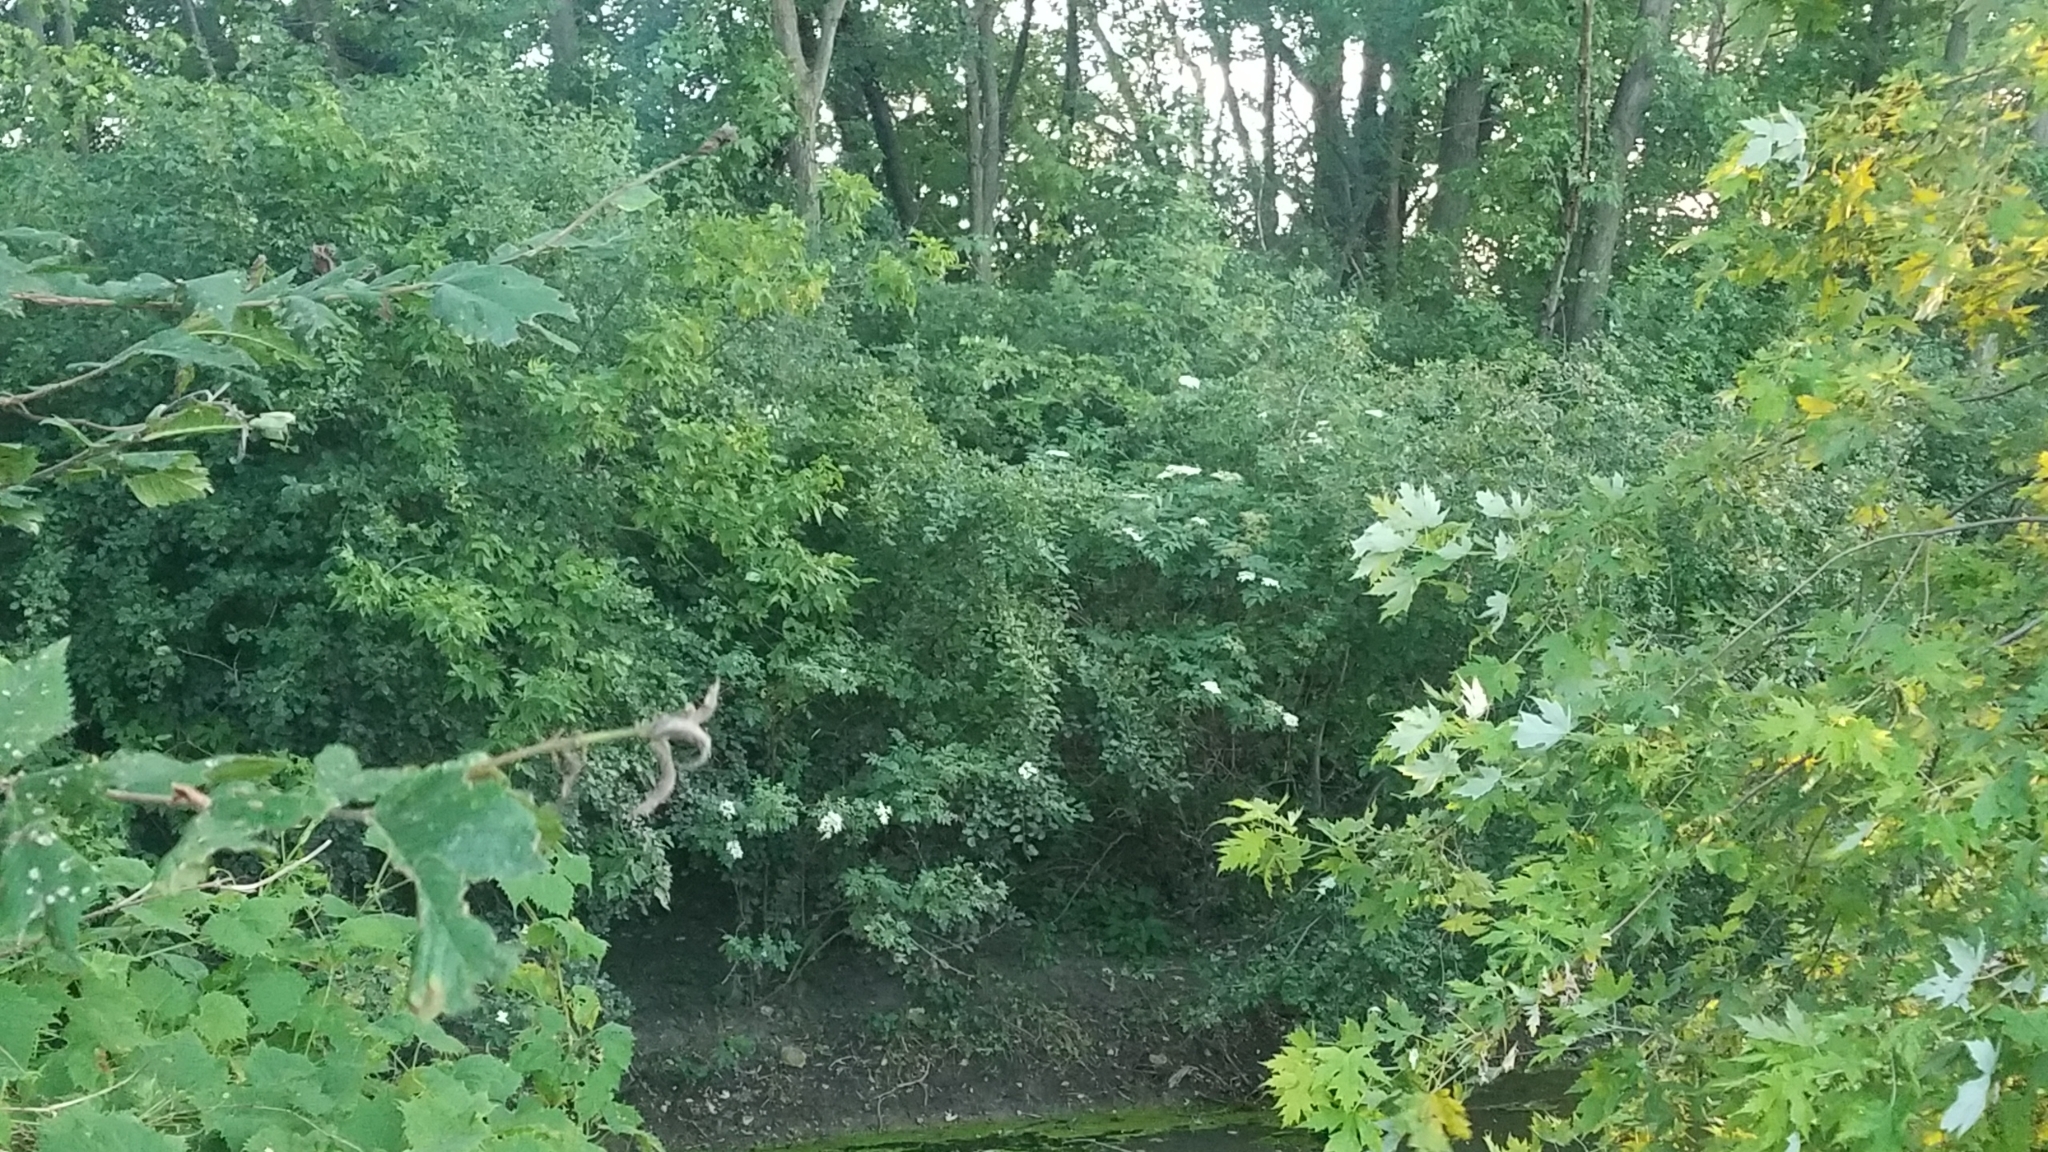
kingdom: Plantae
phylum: Tracheophyta
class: Magnoliopsida
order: Dipsacales
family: Viburnaceae
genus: Sambucus
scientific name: Sambucus canadensis
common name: American elder
